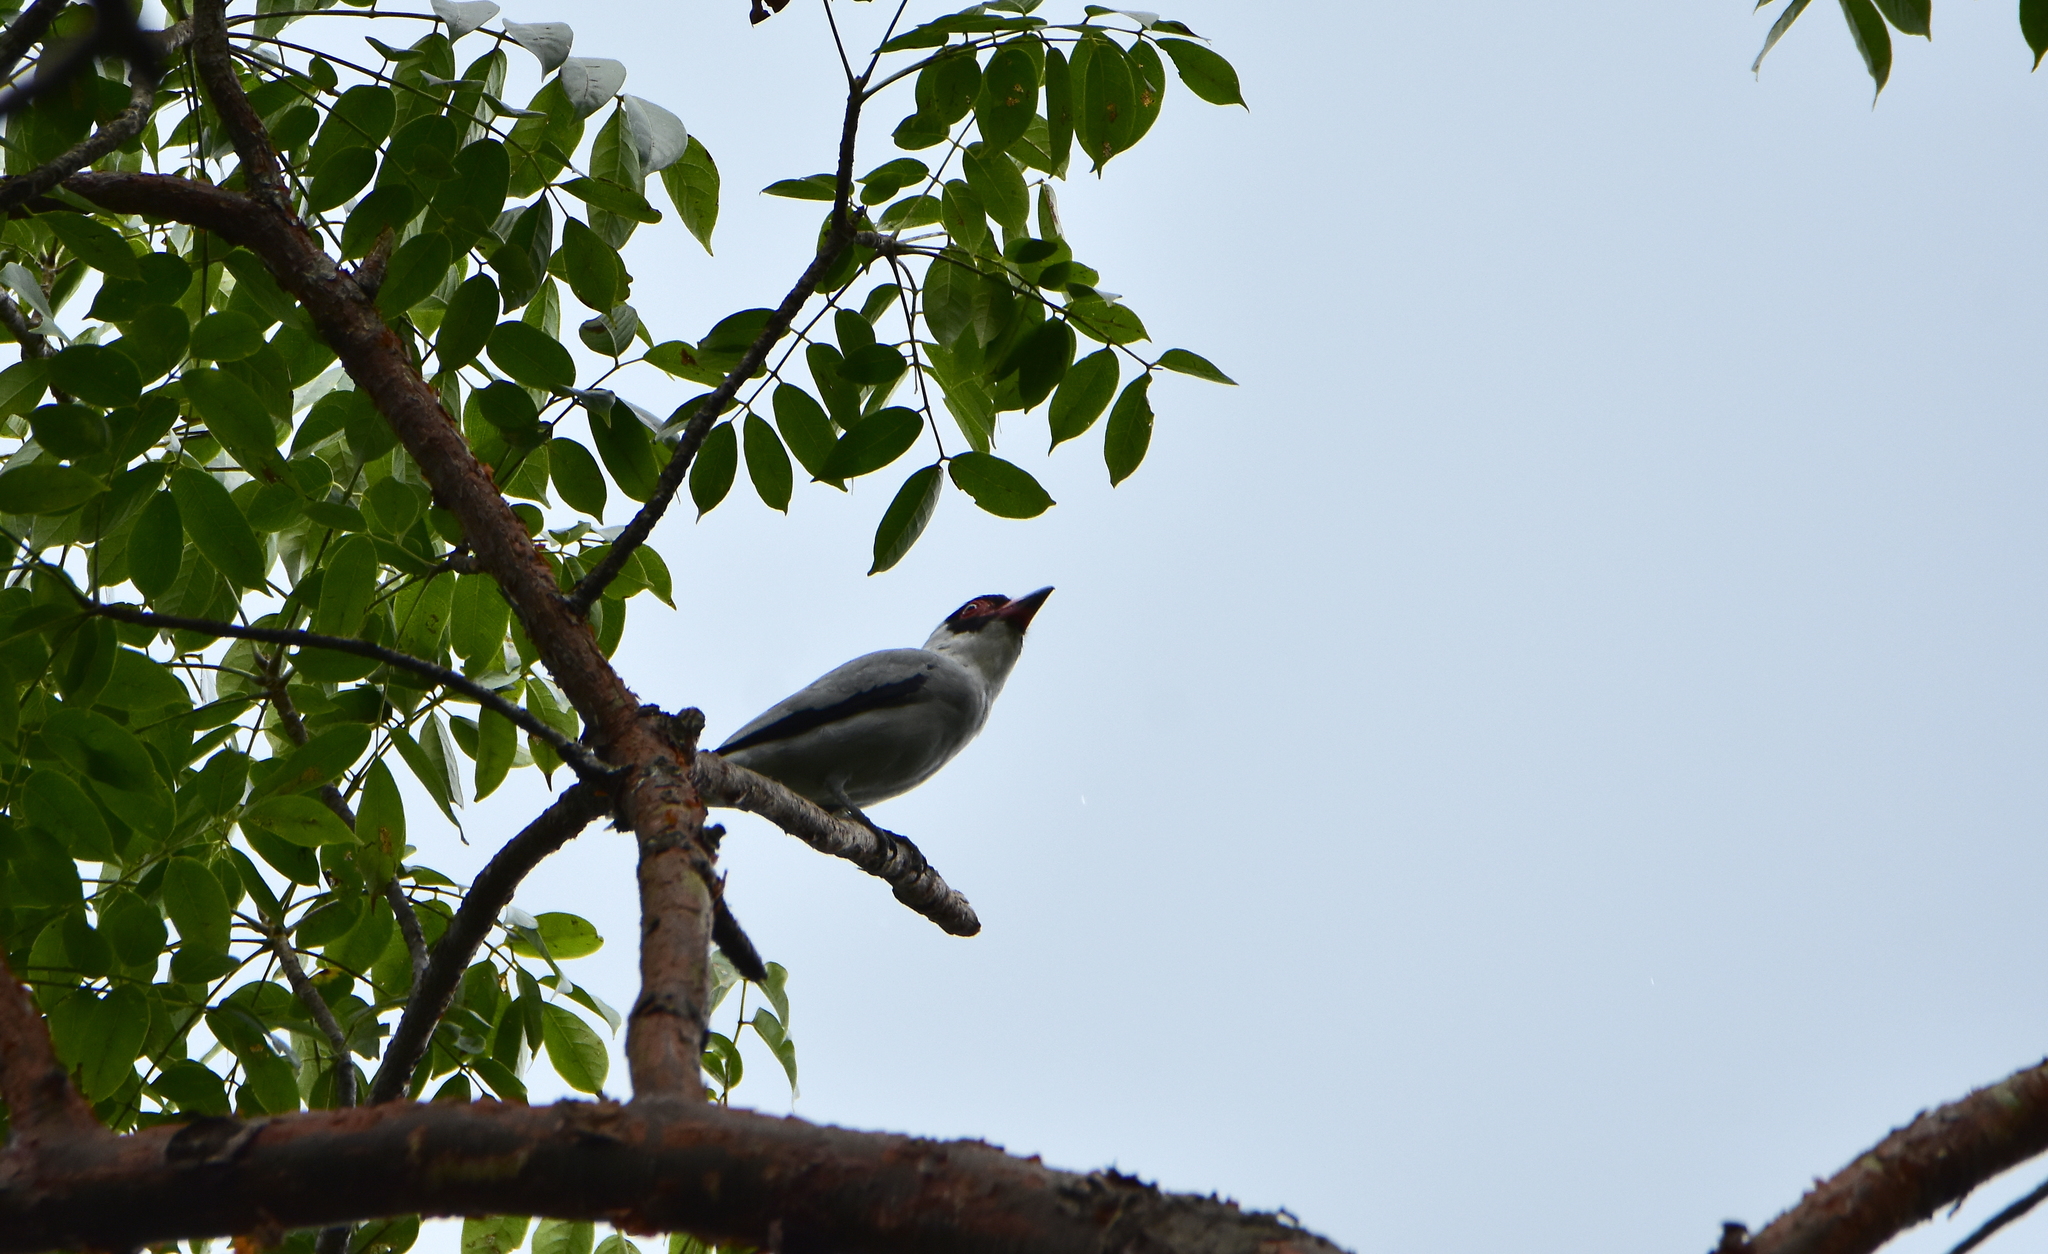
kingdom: Animalia
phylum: Chordata
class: Aves
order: Passeriformes
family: Cotingidae
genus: Tityra
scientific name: Tityra semifasciata
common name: Masked tityra
